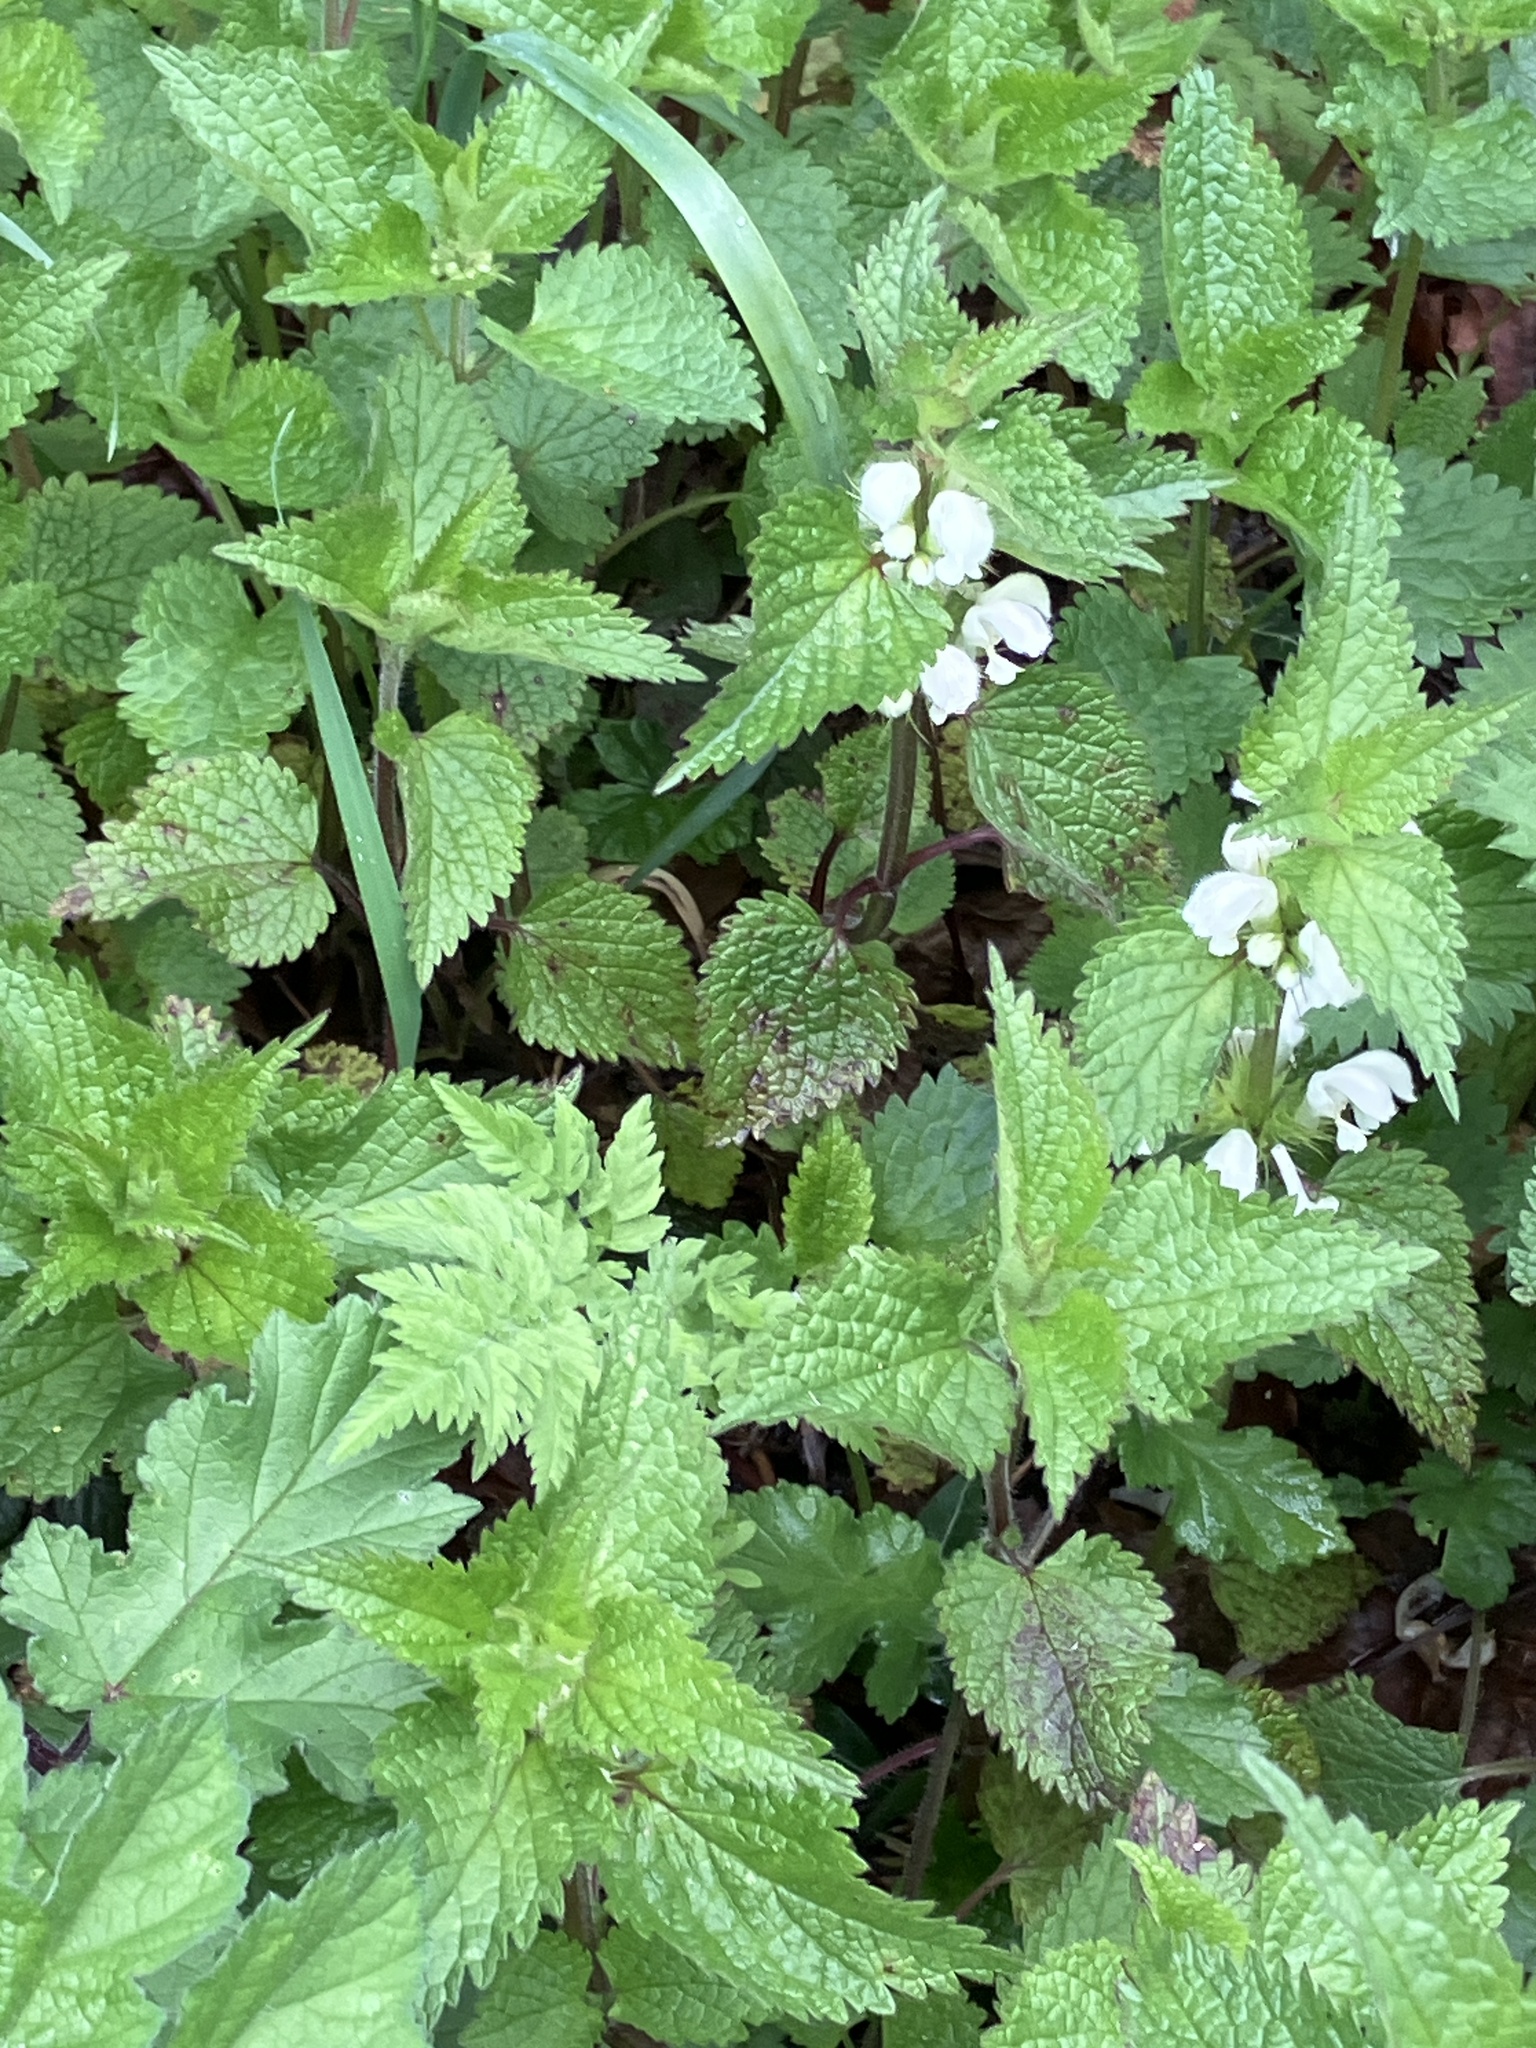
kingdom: Plantae
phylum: Tracheophyta
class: Magnoliopsida
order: Lamiales
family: Lamiaceae
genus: Lamium
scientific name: Lamium album
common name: White dead-nettle
